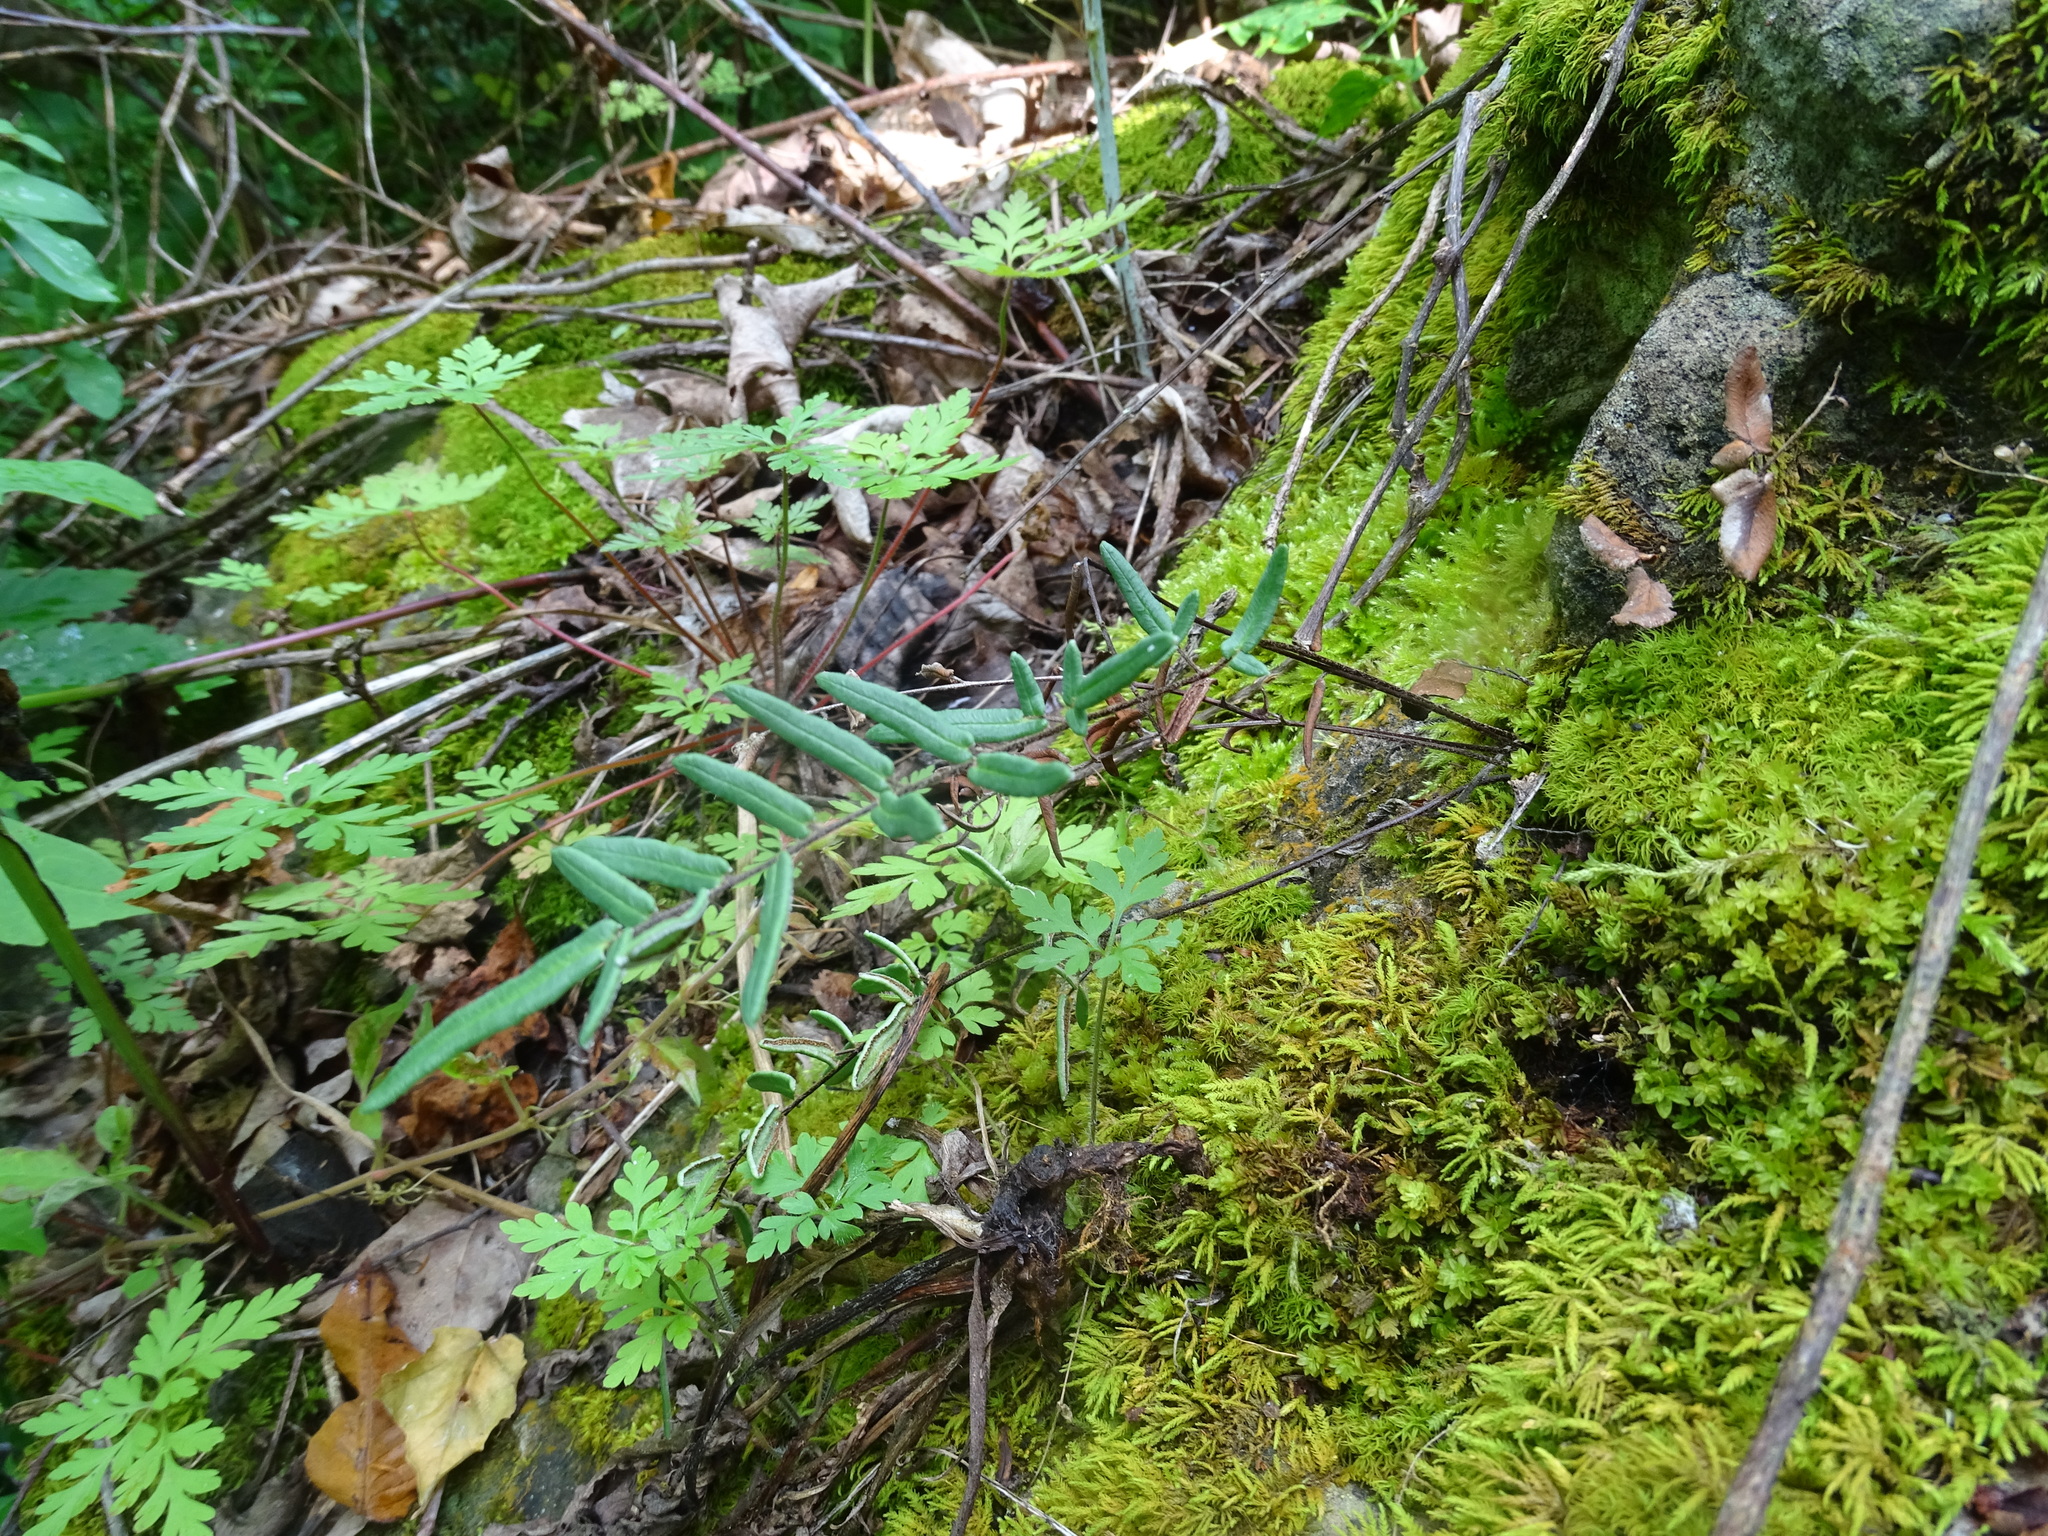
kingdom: Plantae
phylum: Tracheophyta
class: Polypodiopsida
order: Polypodiales
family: Pteridaceae
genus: Pellaea
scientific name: Pellaea atropurpurea
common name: Hairy cliffbrake
